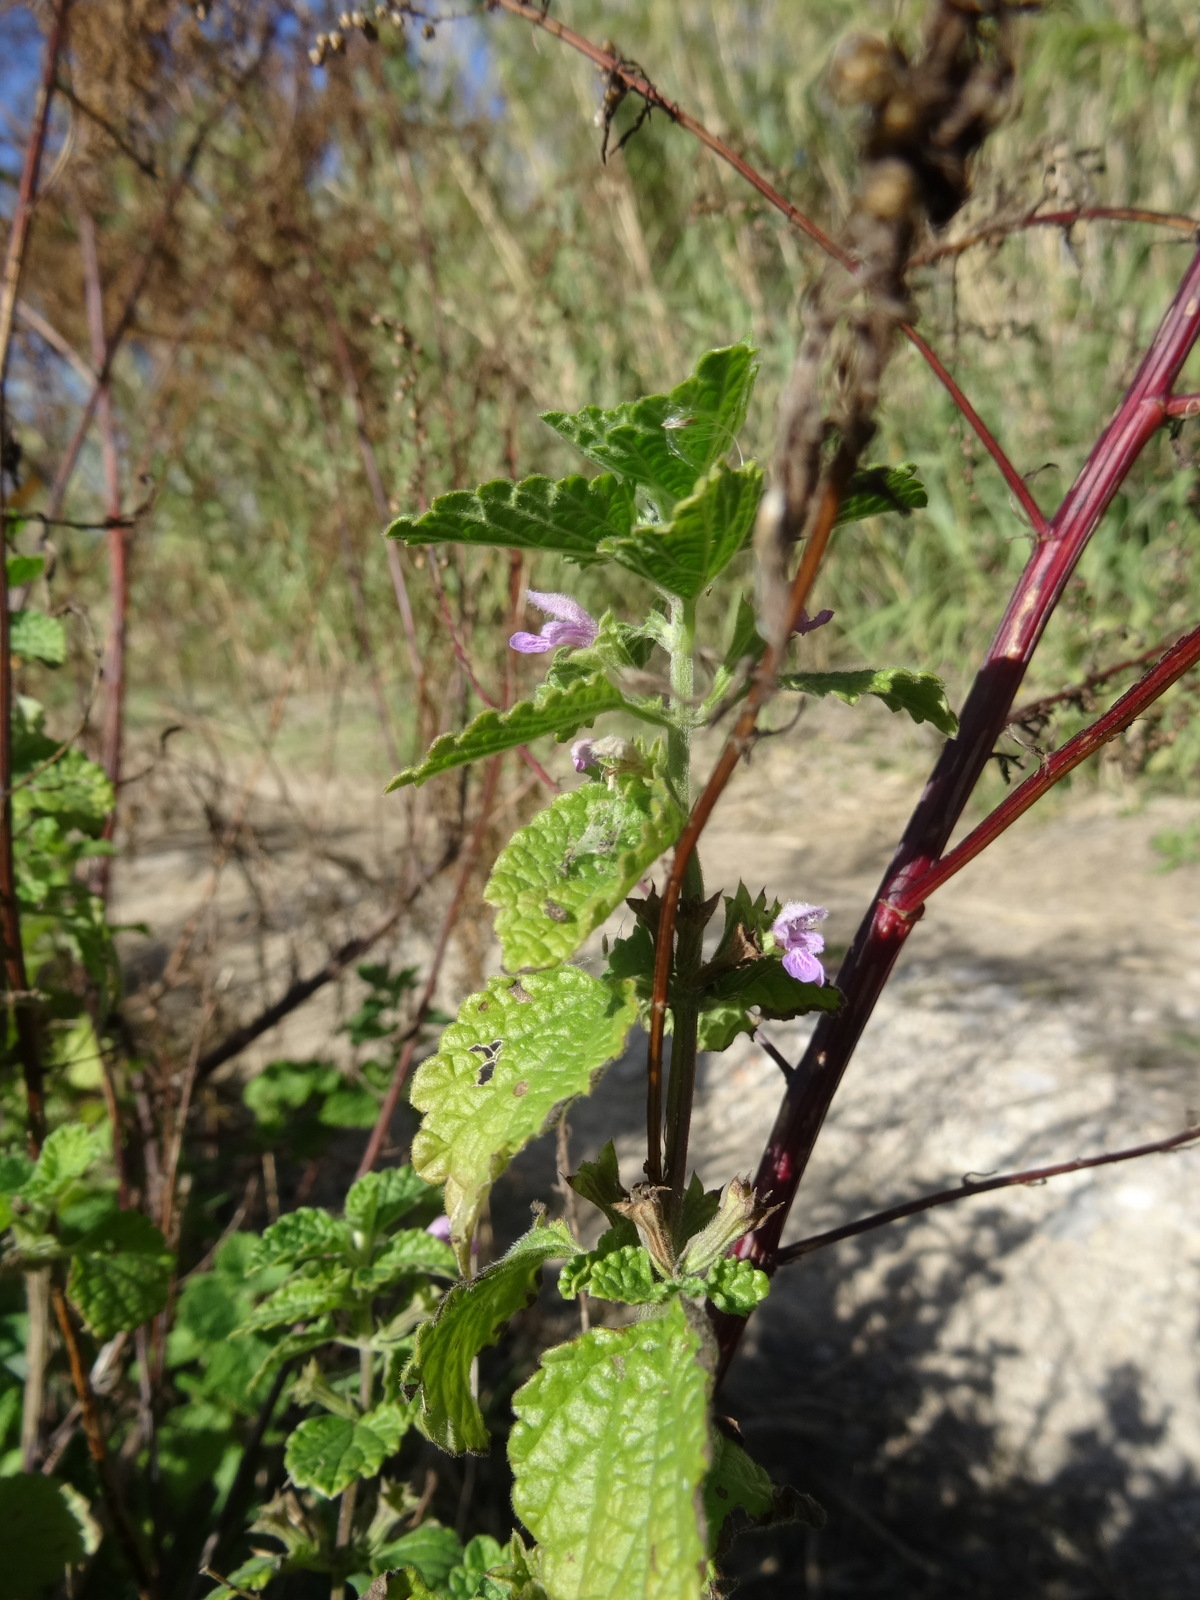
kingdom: Plantae
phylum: Tracheophyta
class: Magnoliopsida
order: Lamiales
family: Lamiaceae
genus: Ballota
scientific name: Ballota nigra
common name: Black horehound
